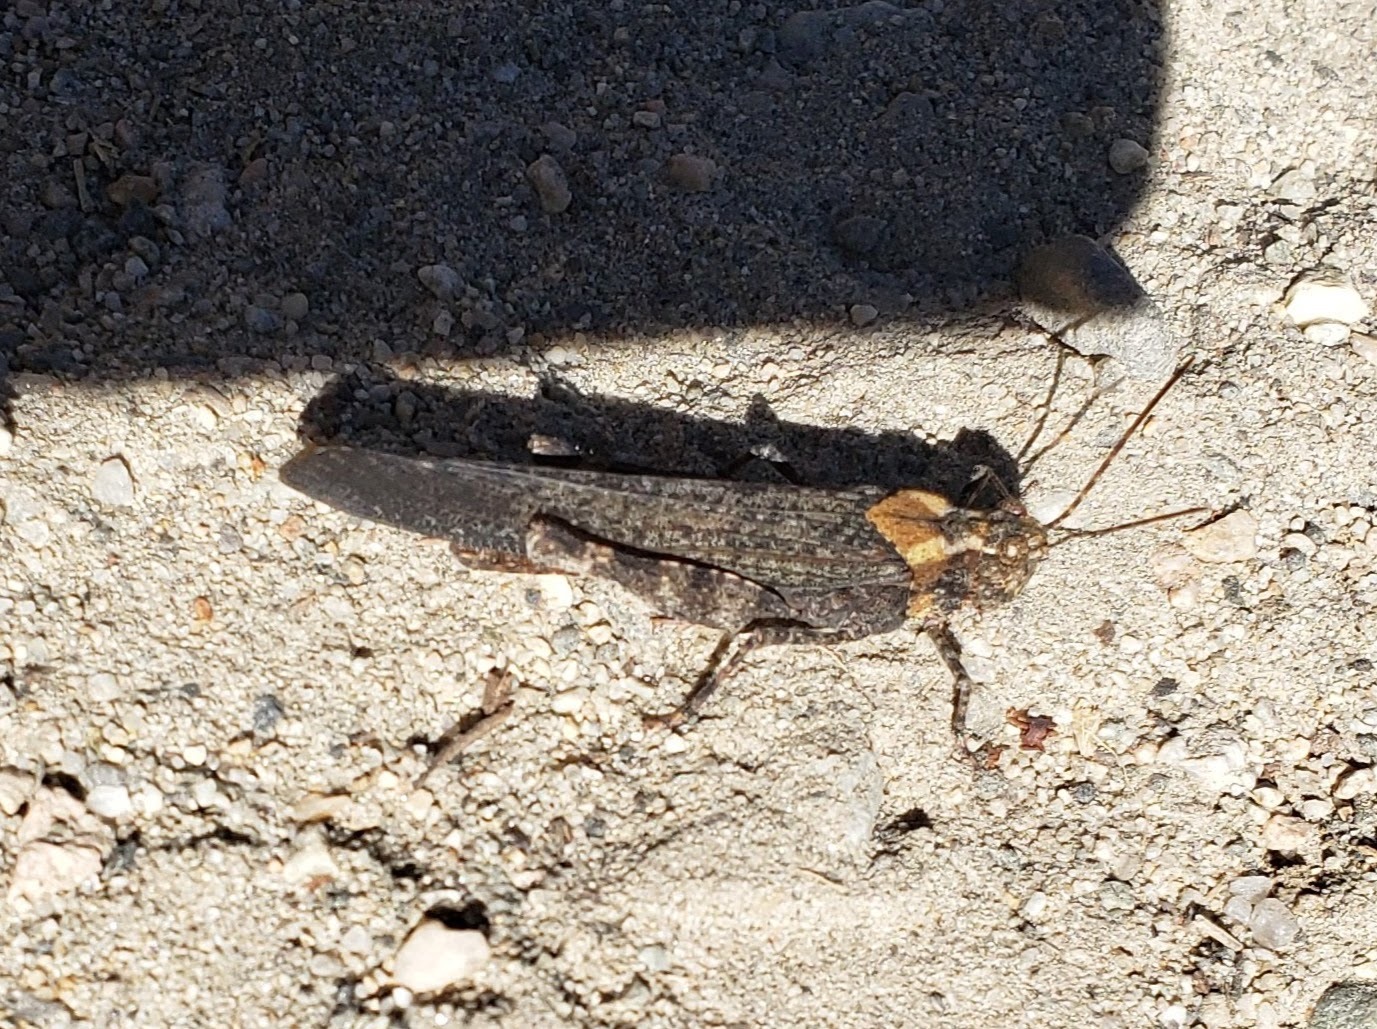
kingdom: Animalia
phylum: Arthropoda
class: Insecta
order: Orthoptera
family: Acrididae
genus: Trimerotropis
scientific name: Trimerotropis verruculata
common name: Crackling forest grasshopper
